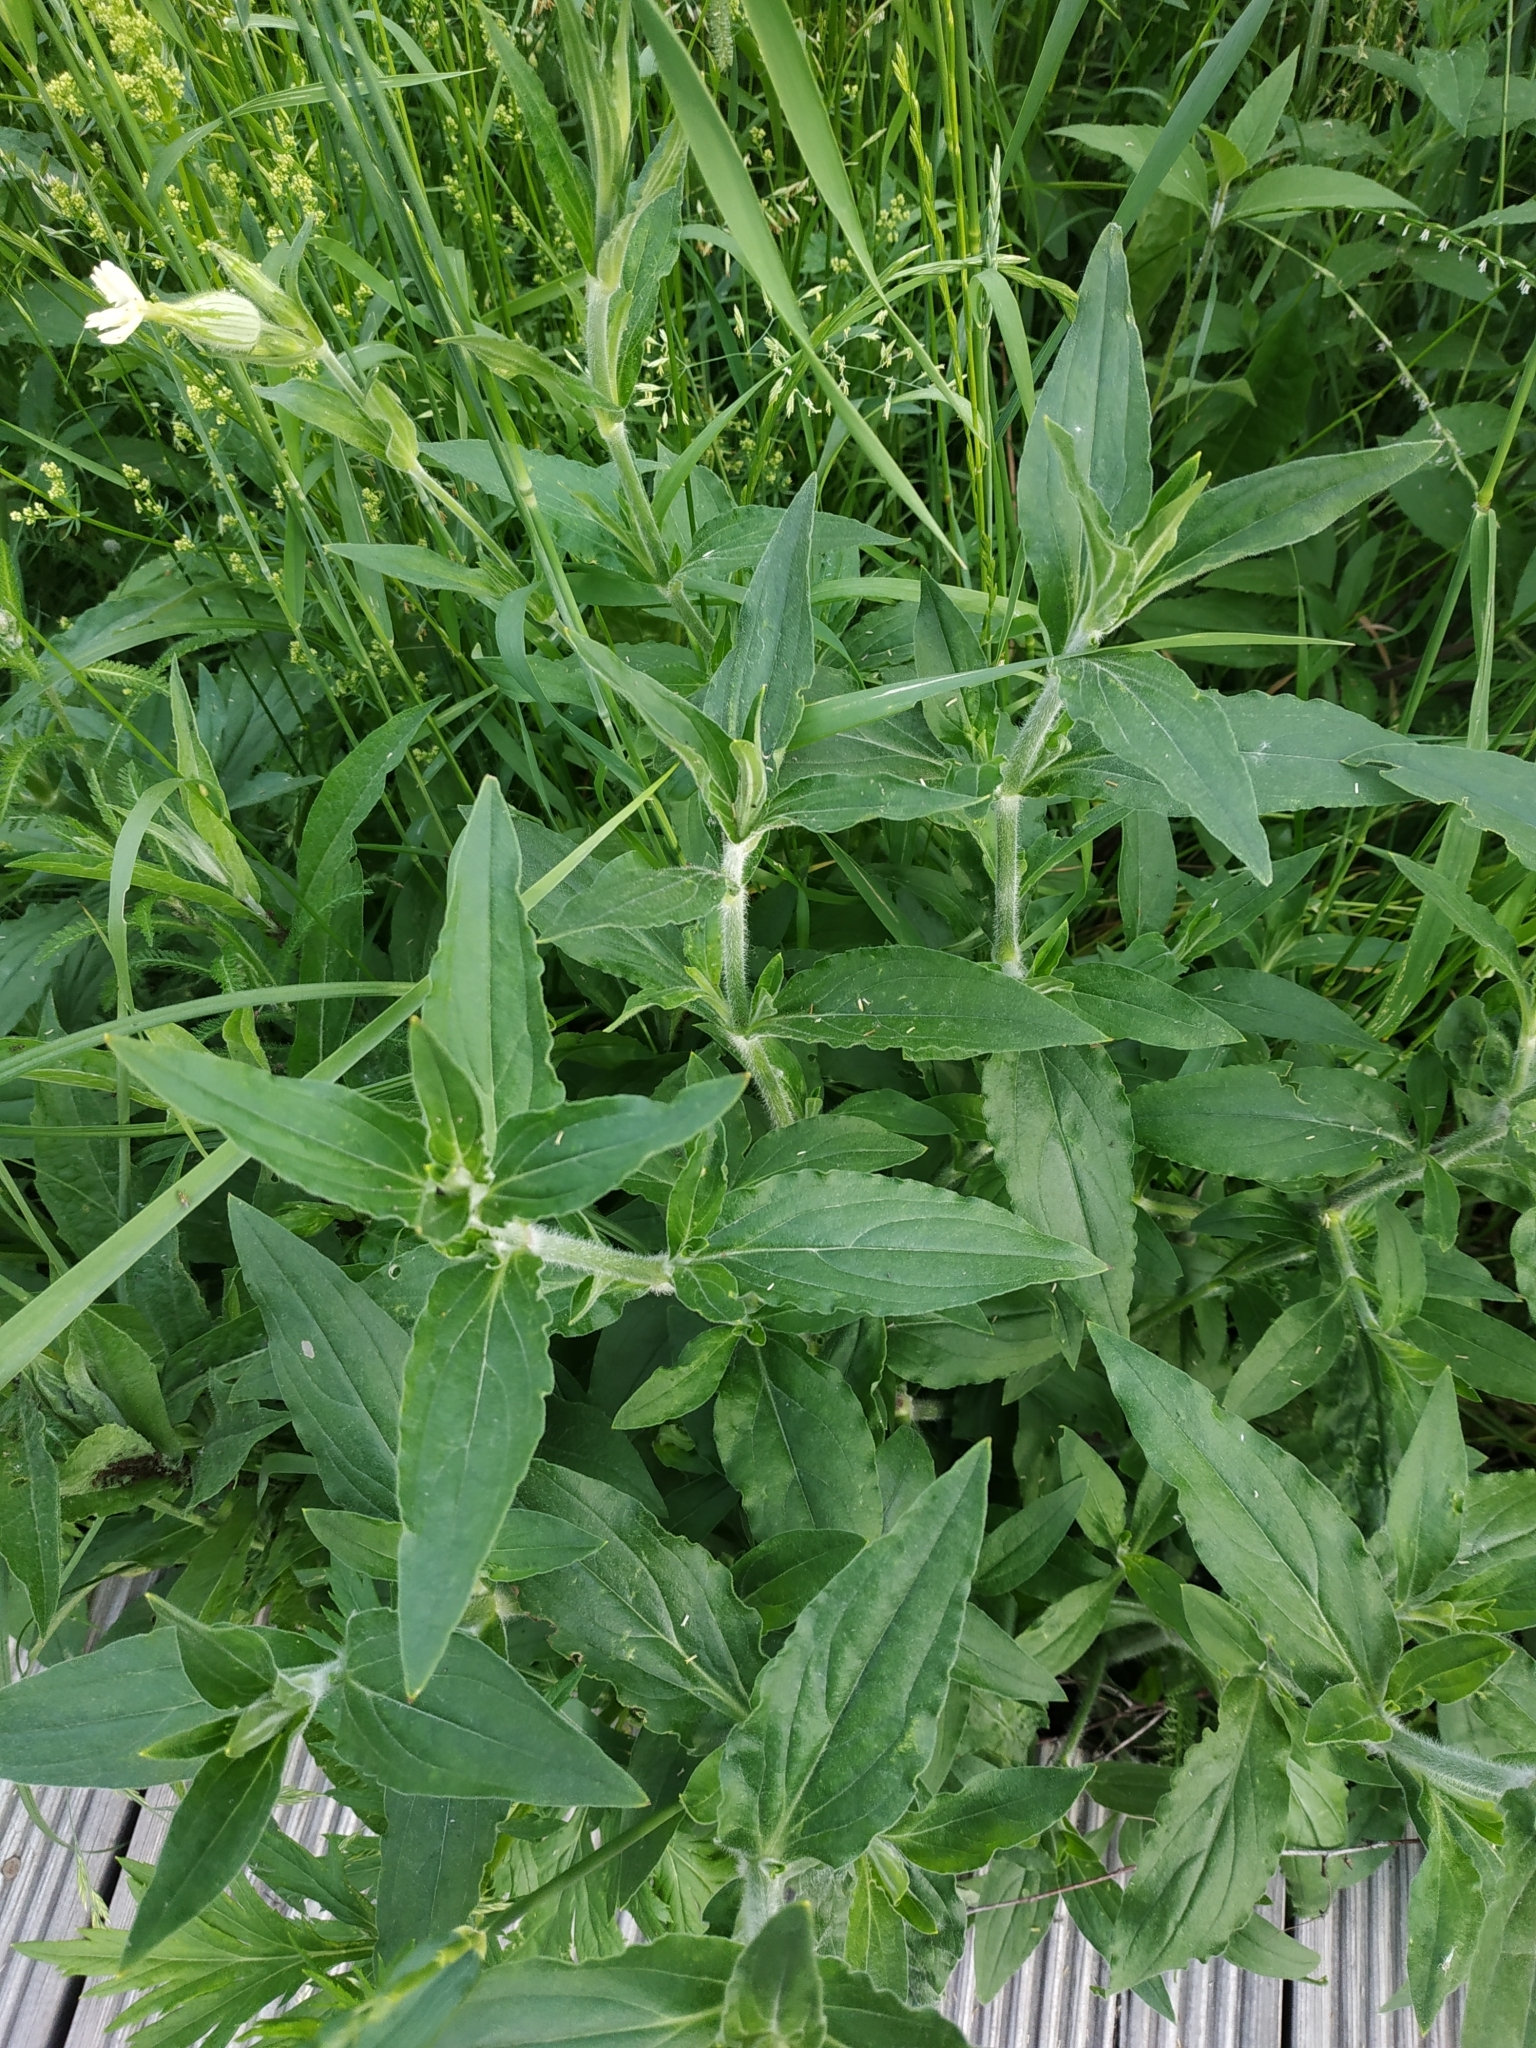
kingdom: Plantae
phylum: Tracheophyta
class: Magnoliopsida
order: Caryophyllales
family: Caryophyllaceae
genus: Silene
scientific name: Silene latifolia
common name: White campion
